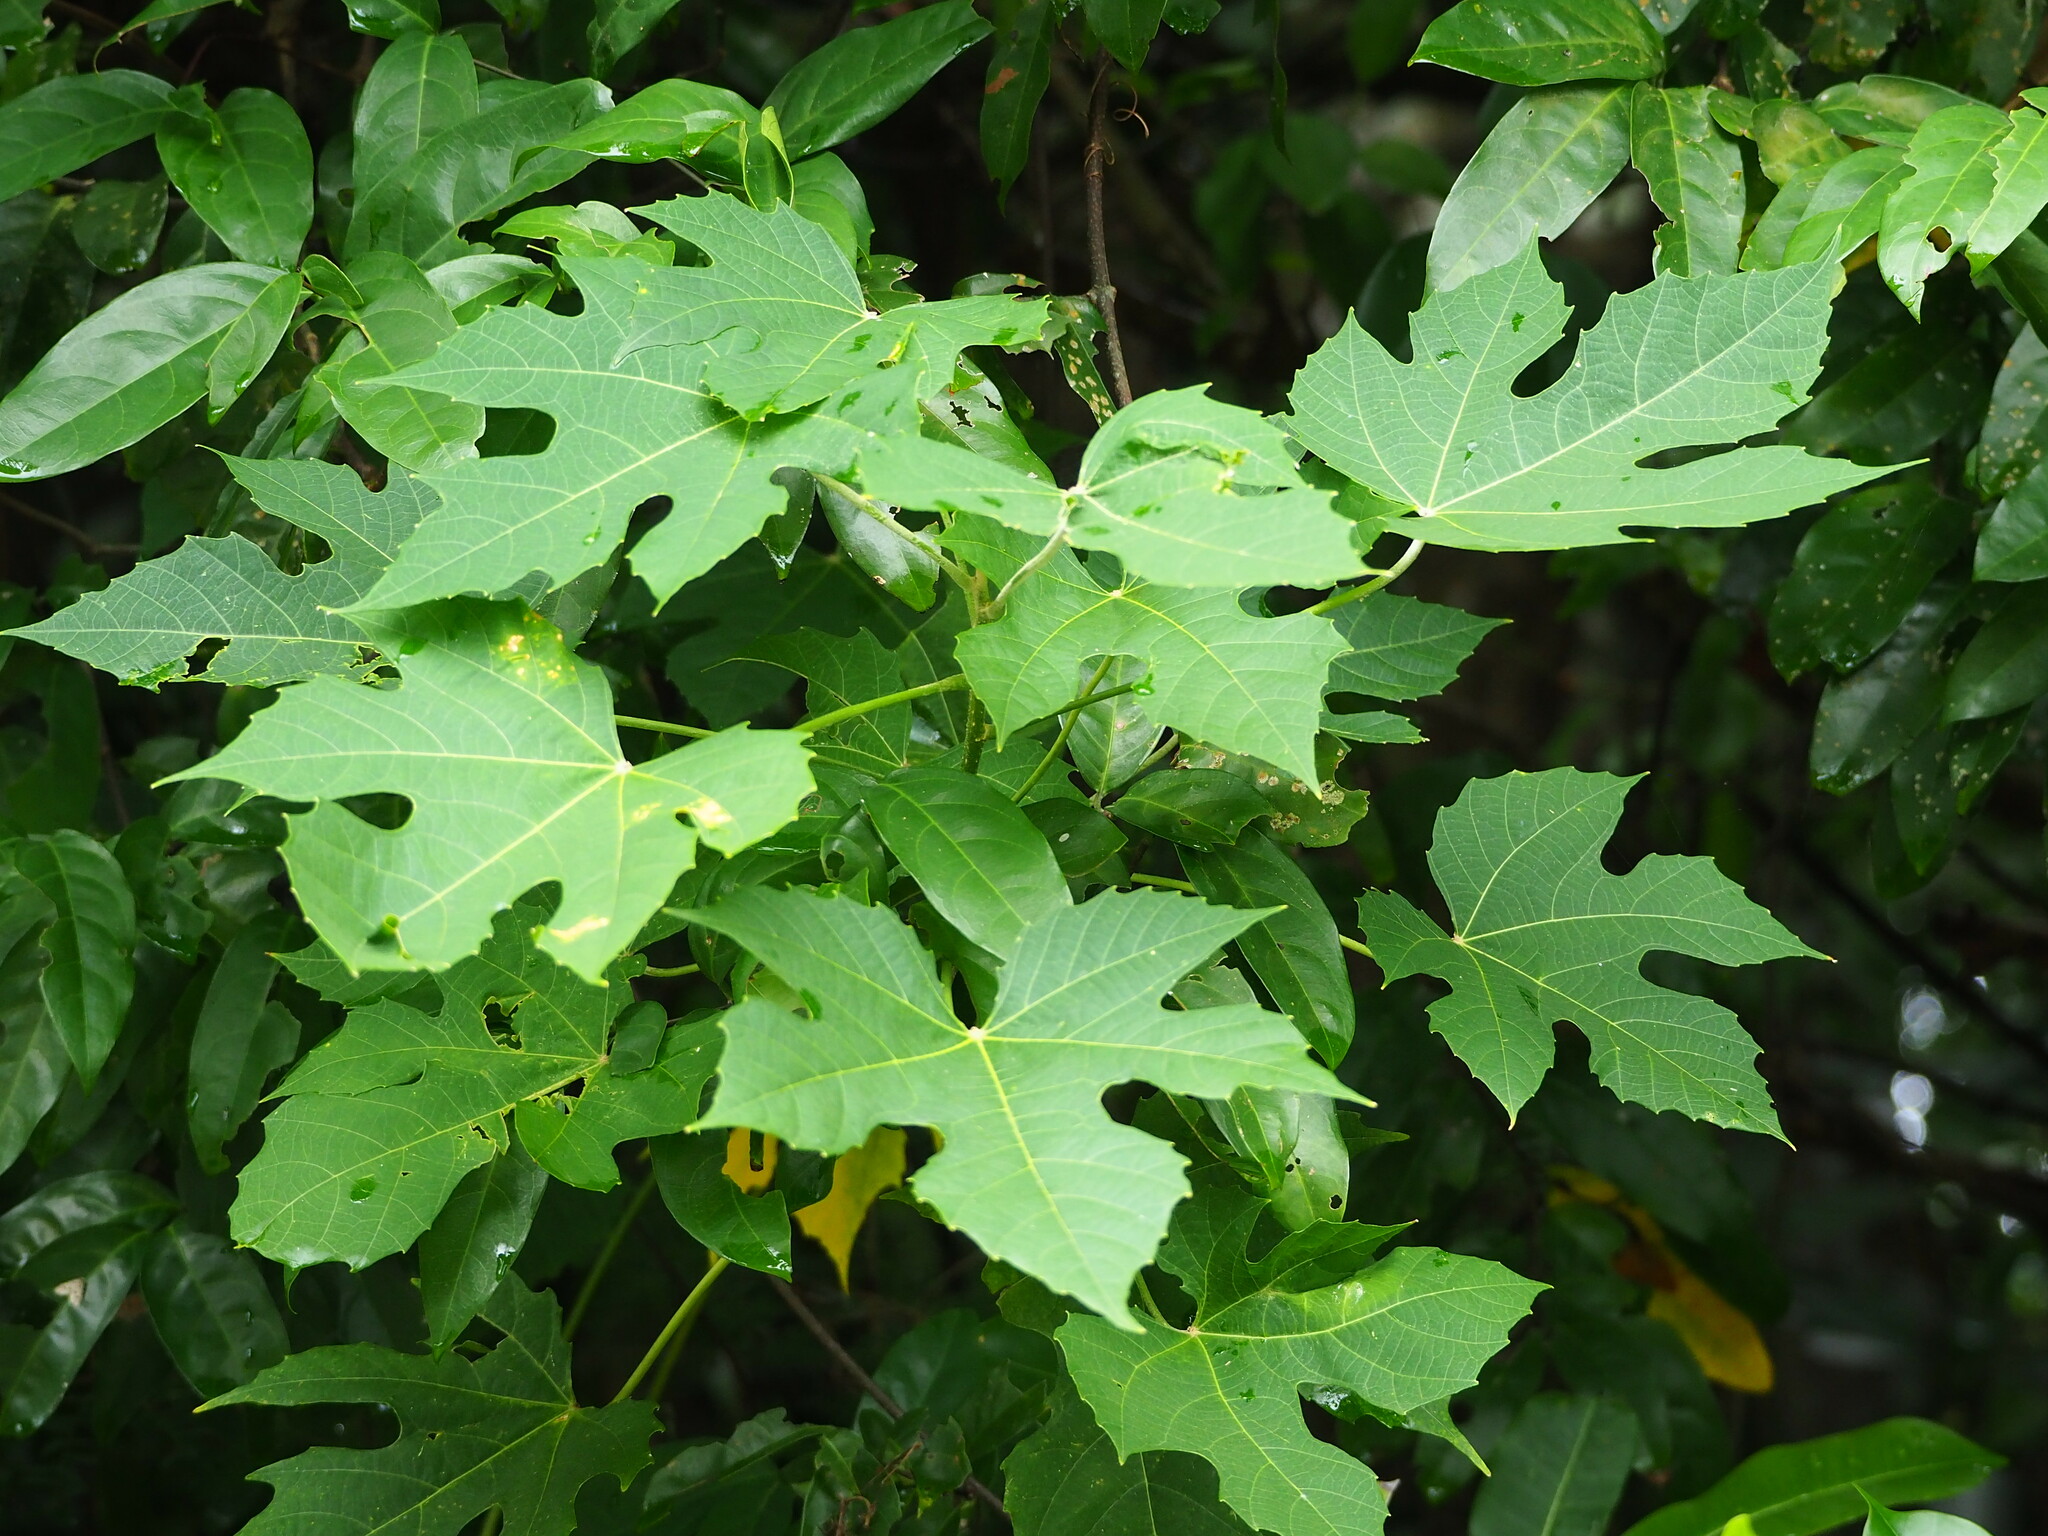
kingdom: Plantae
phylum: Tracheophyta
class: Magnoliopsida
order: Malpighiales
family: Euphorbiaceae
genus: Melanolepis
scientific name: Melanolepis multiglandulosa
